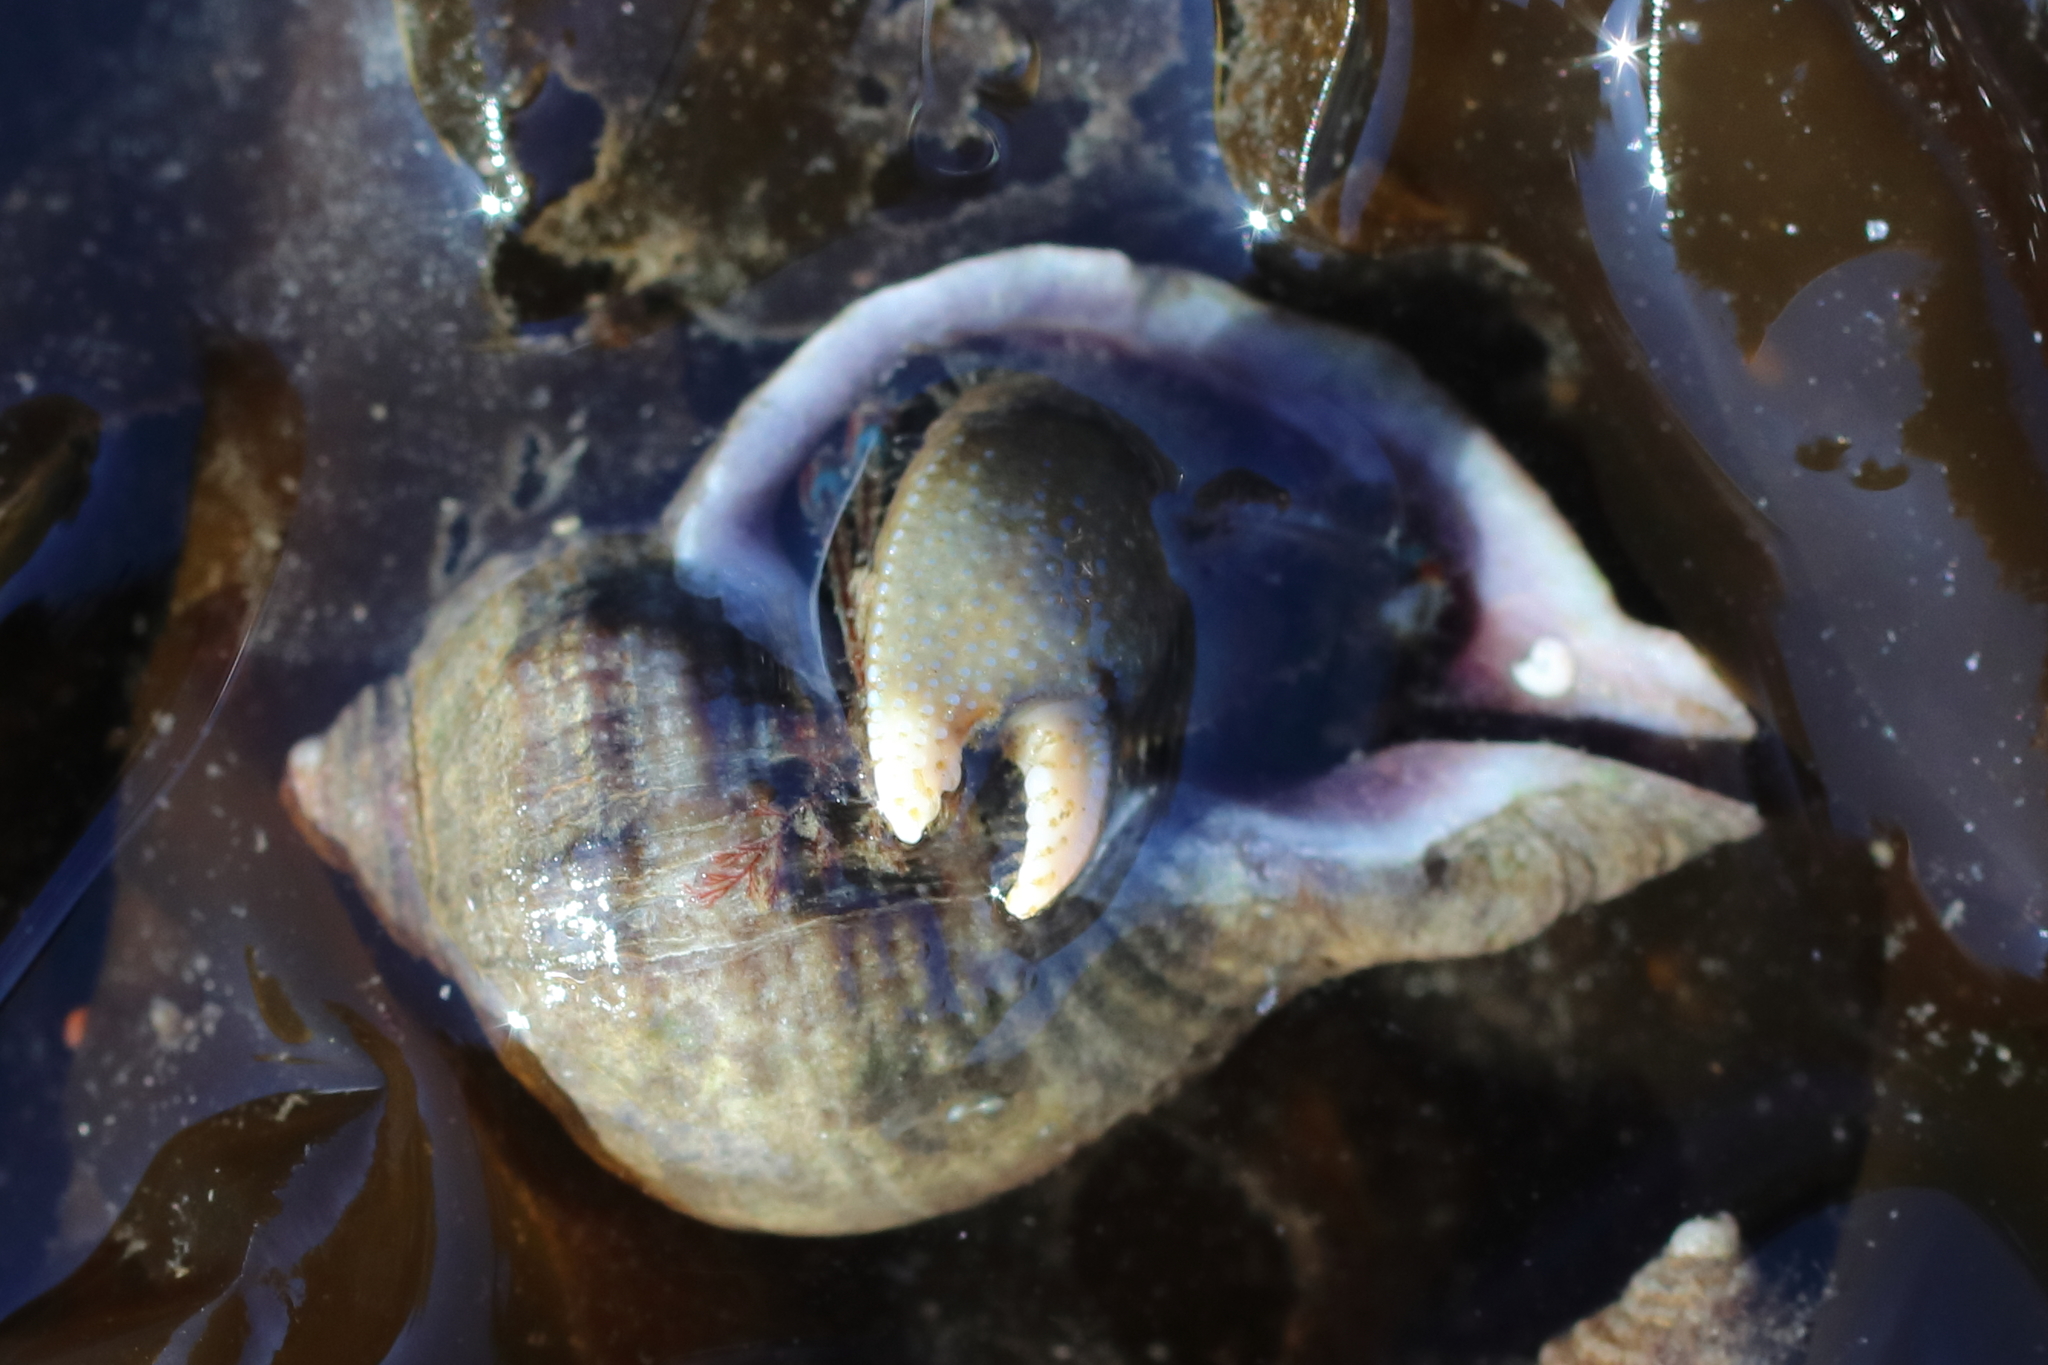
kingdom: Animalia
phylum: Arthropoda
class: Malacostraca
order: Decapoda
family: Paguridae
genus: Pagurus
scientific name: Pagurus hirsutiusculus
